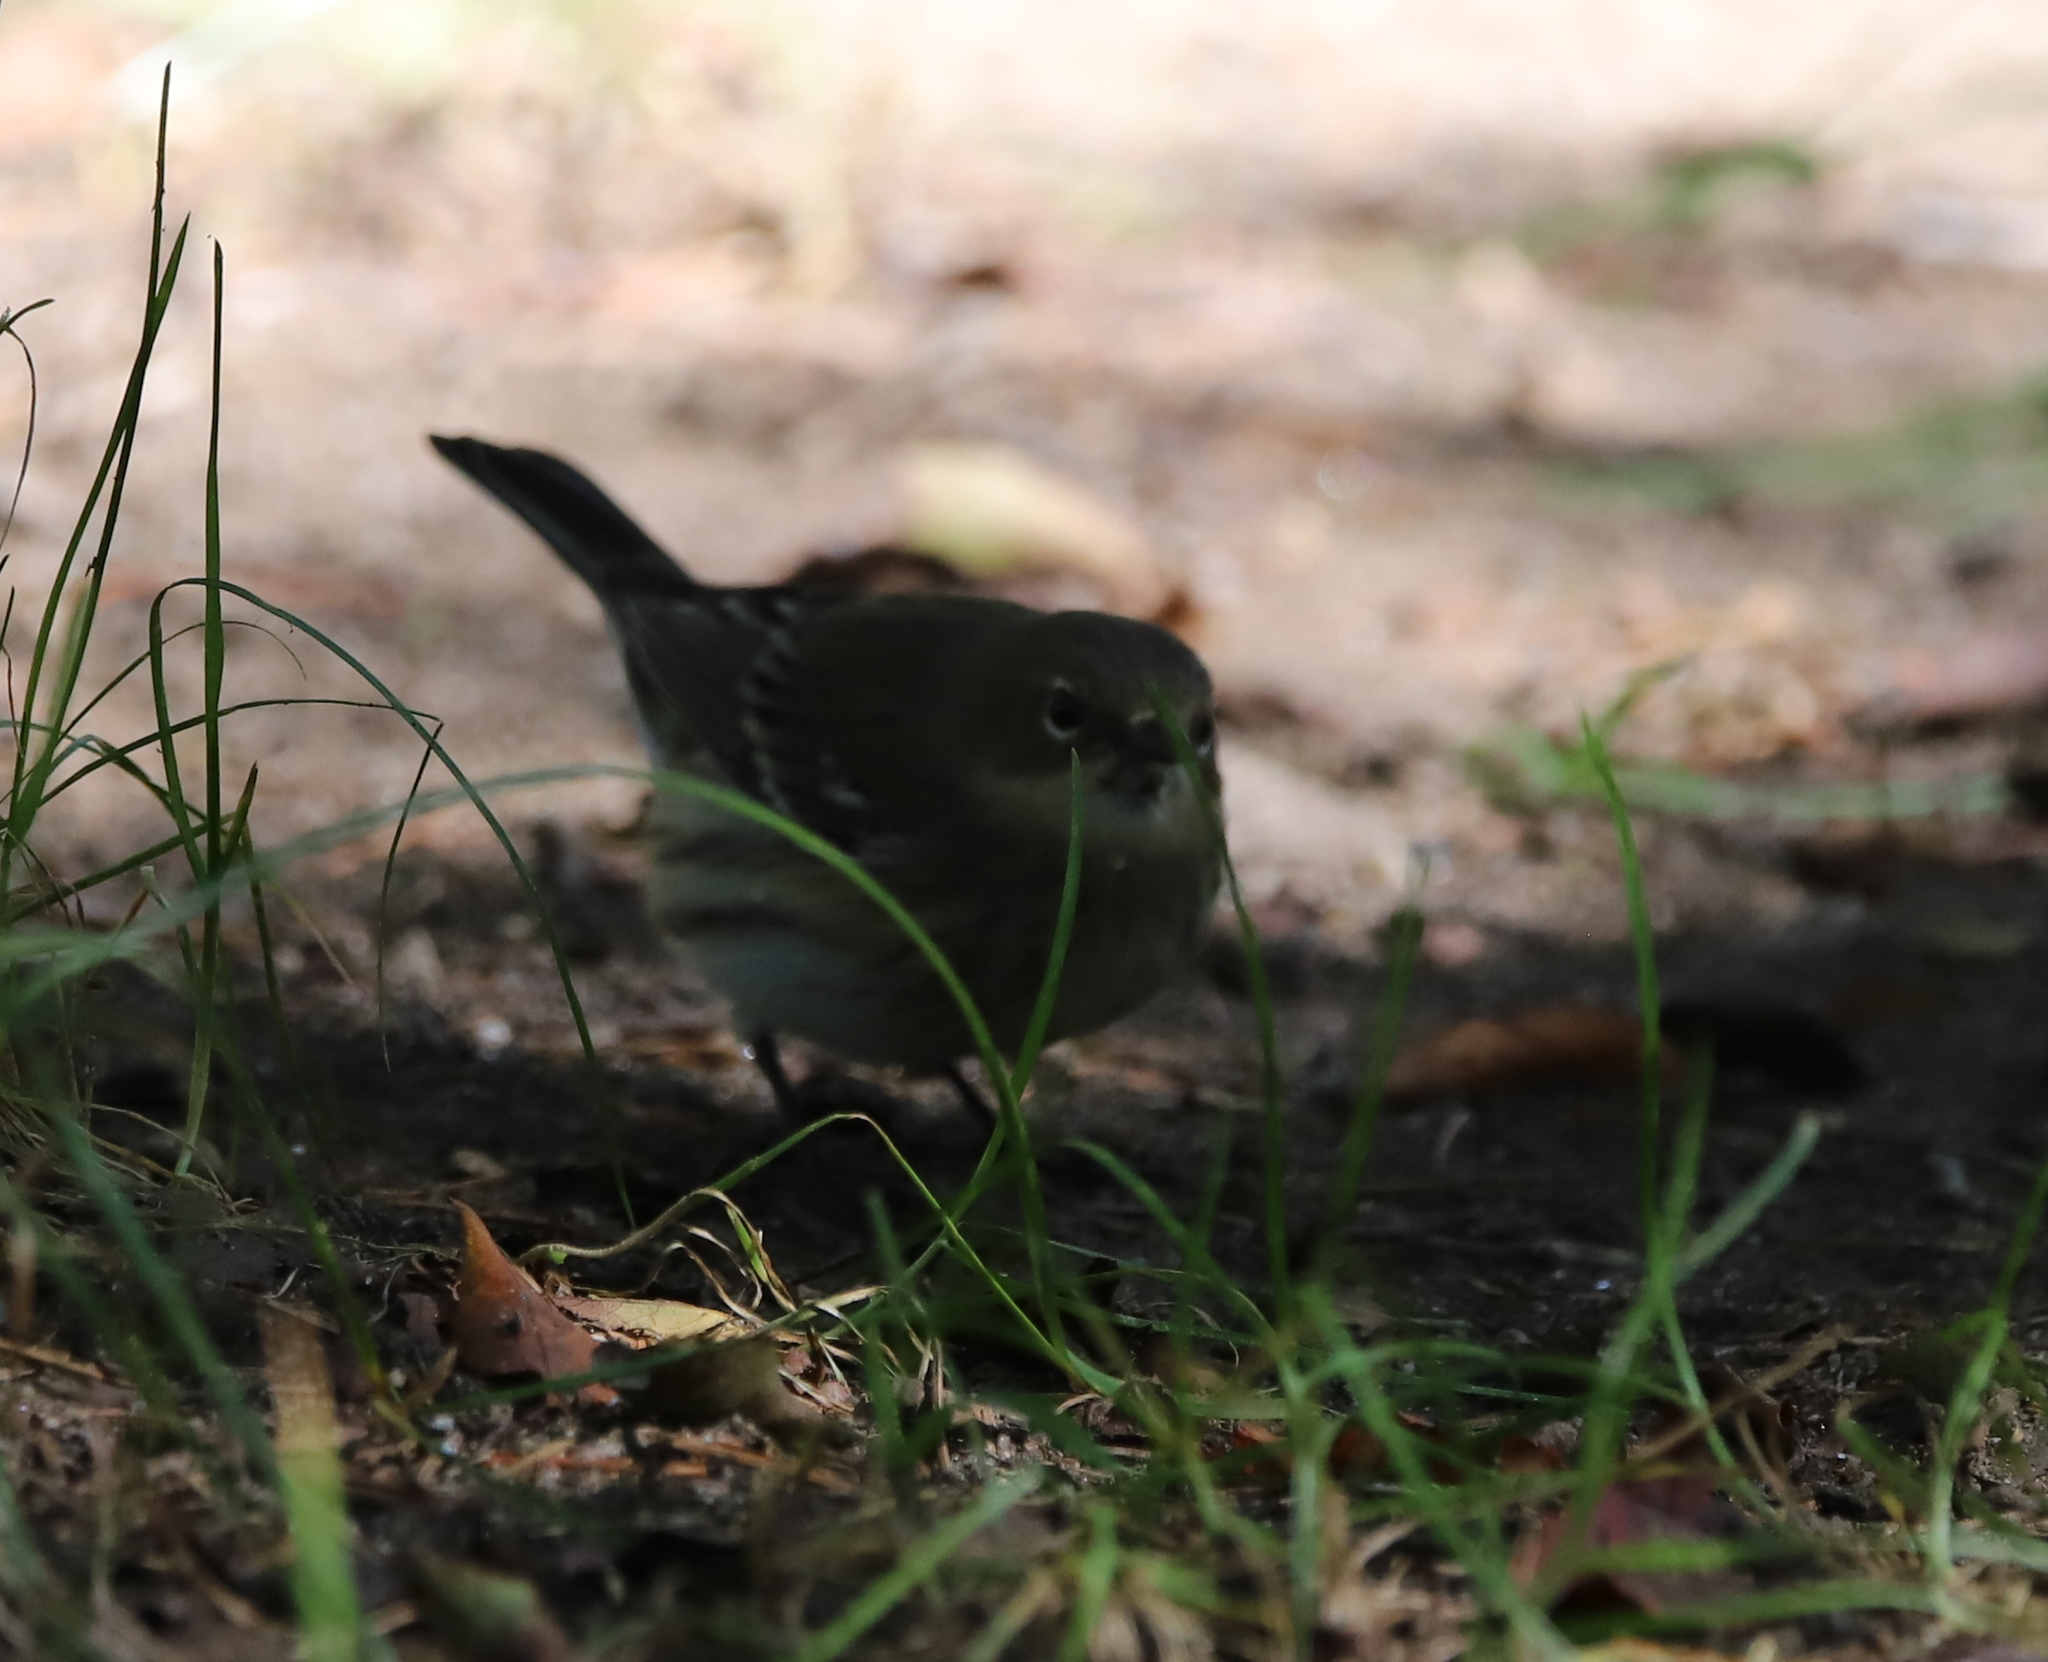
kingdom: Animalia
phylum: Chordata
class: Aves
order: Passeriformes
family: Parulidae
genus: Setophaga
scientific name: Setophaga coronata
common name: Myrtle warbler
